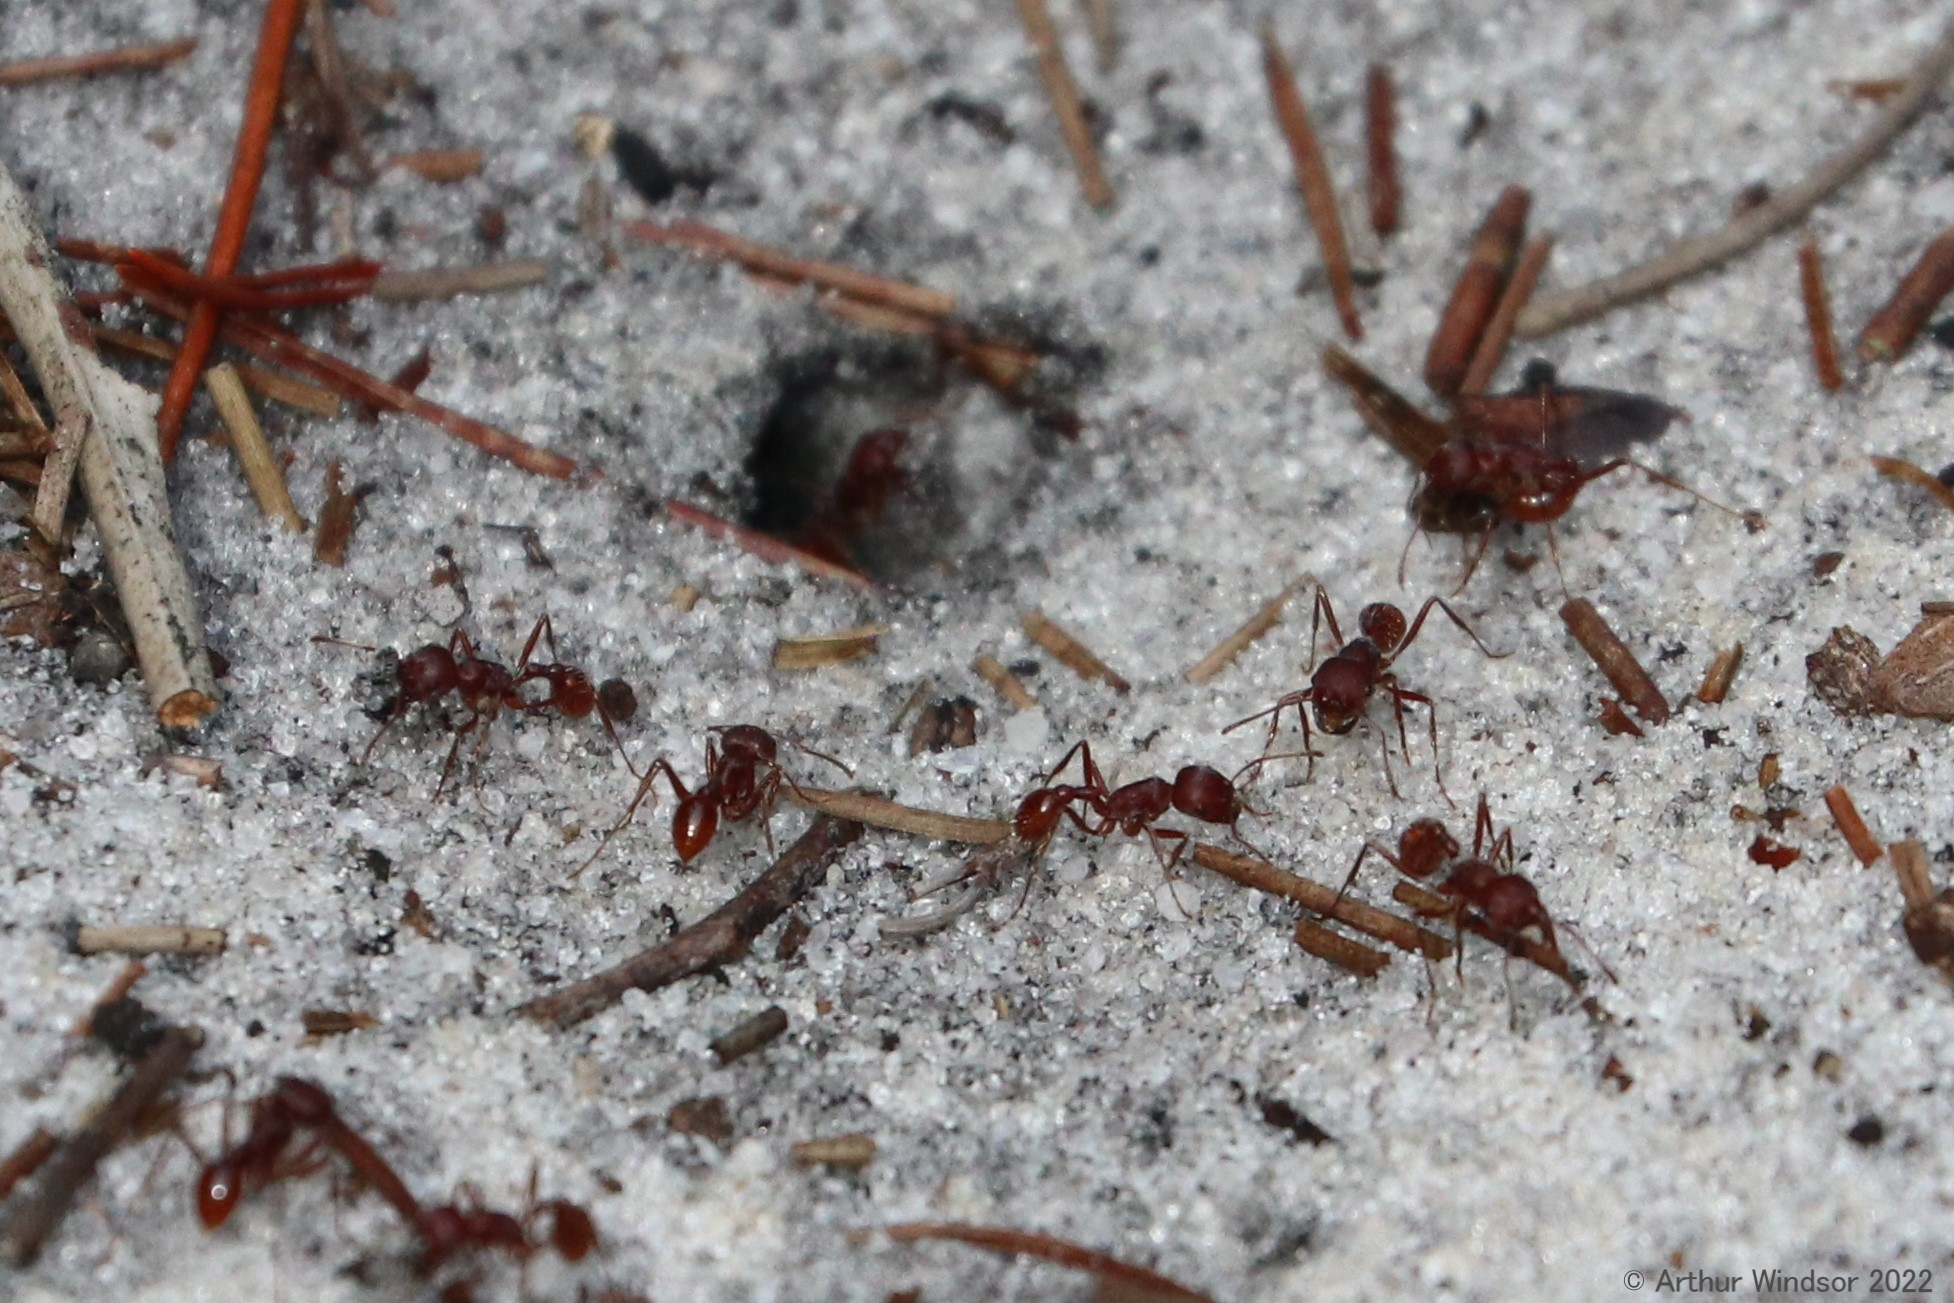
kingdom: Animalia
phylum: Arthropoda
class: Insecta
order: Hymenoptera
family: Formicidae
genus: Pogonomyrmex
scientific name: Pogonomyrmex badius
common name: Florida harvester ant
